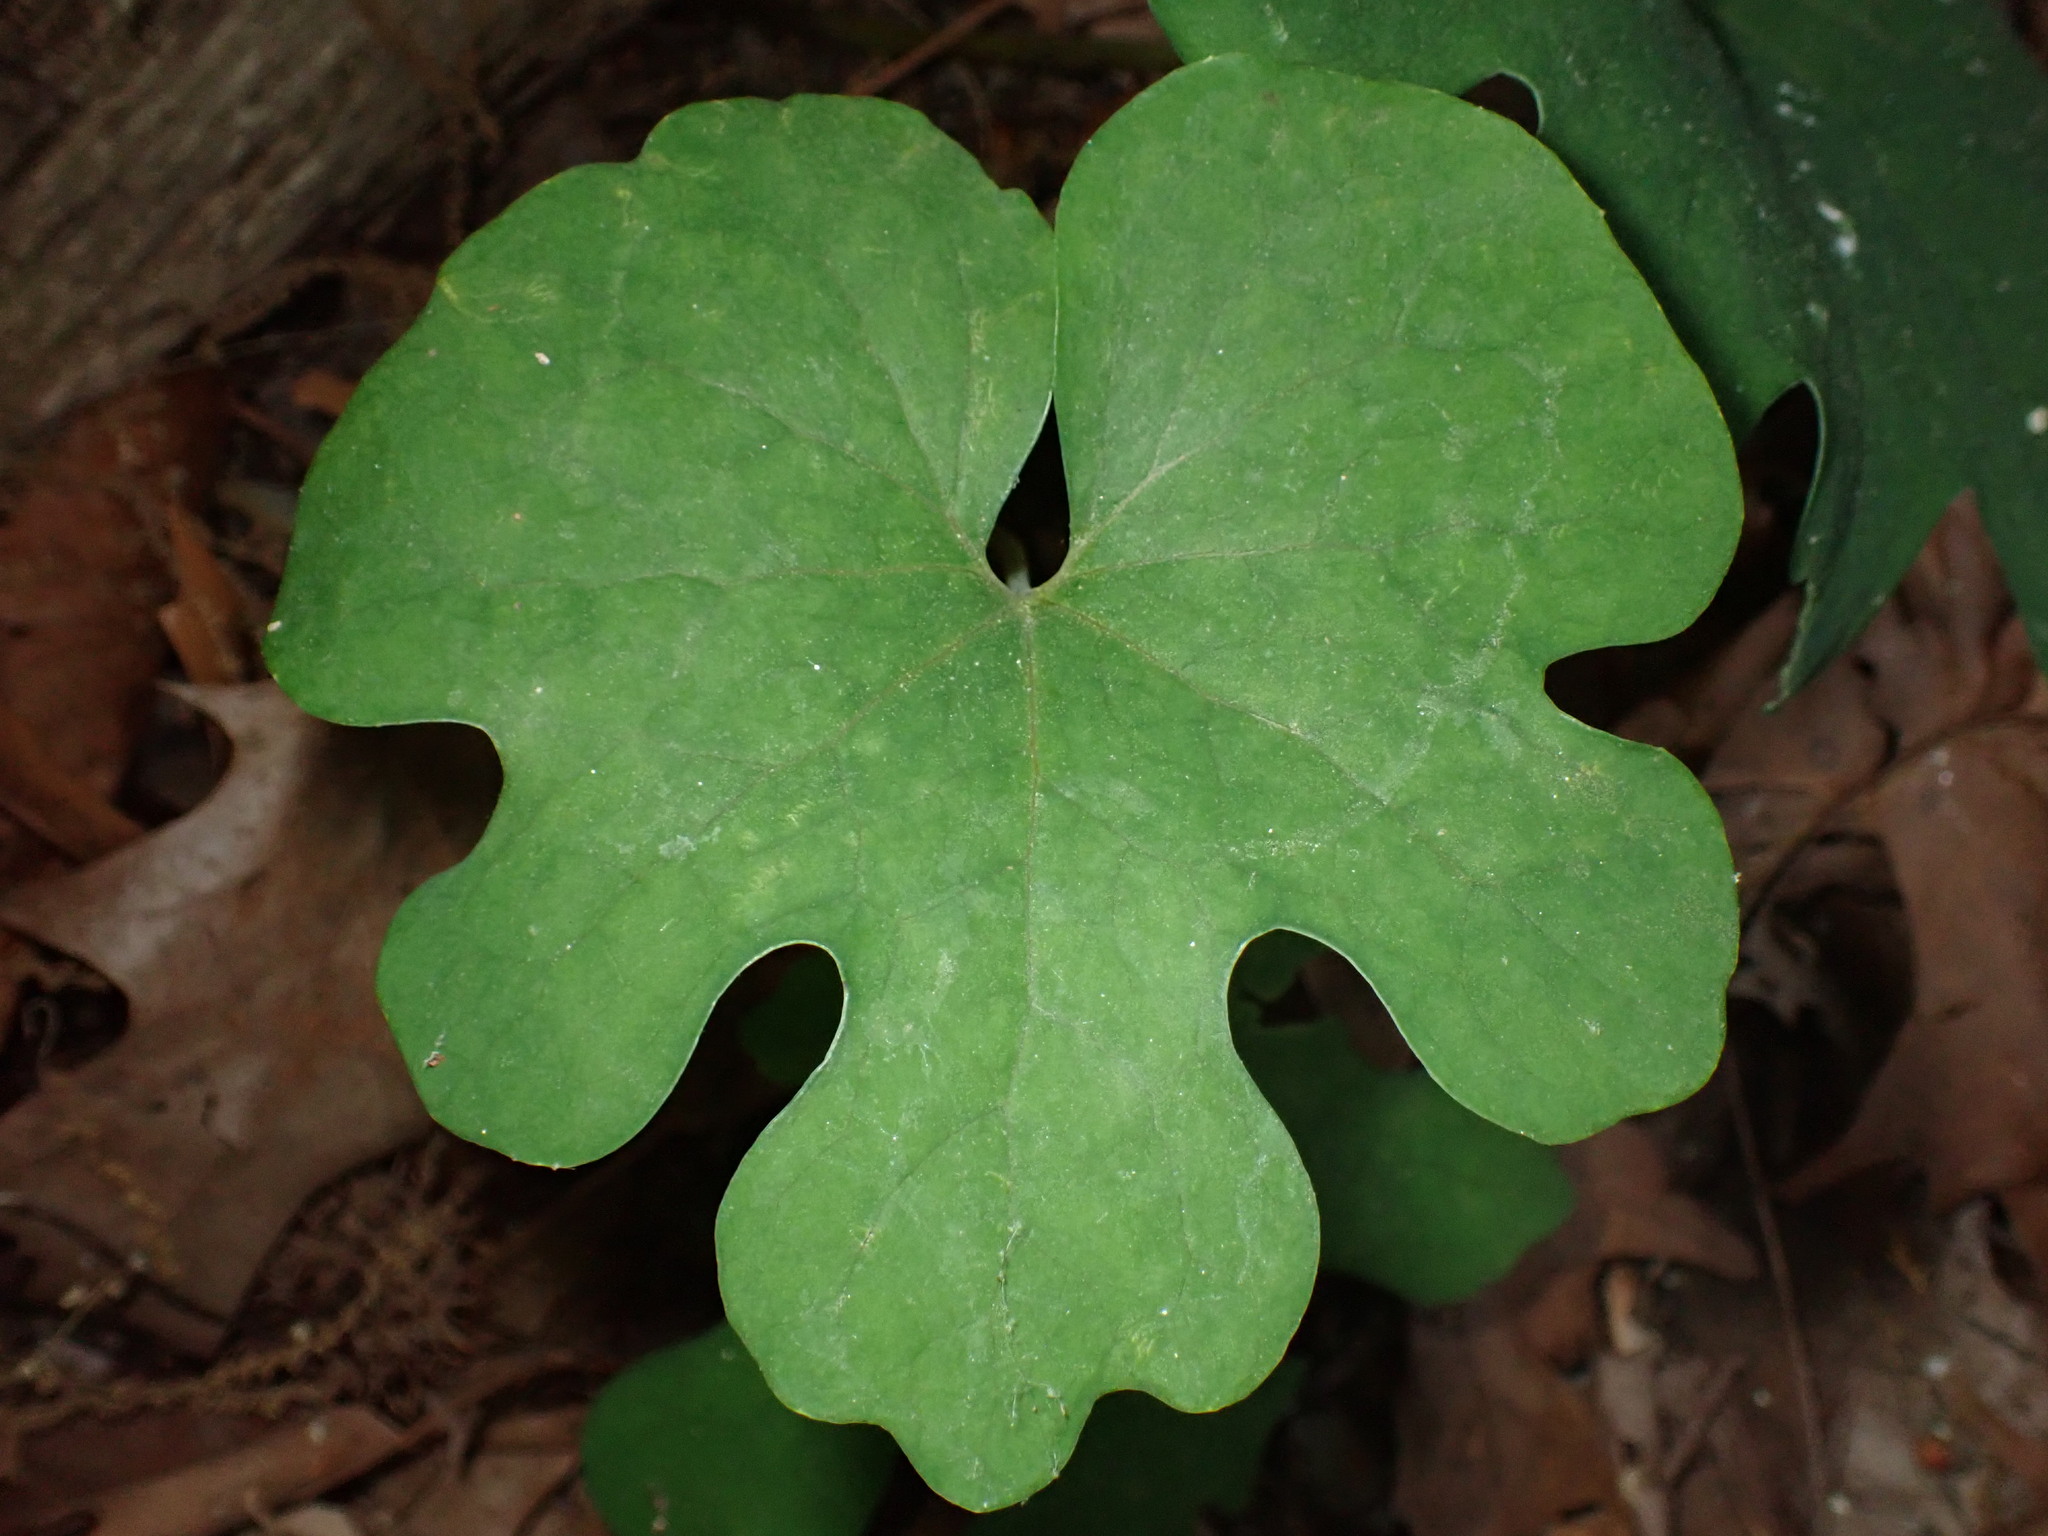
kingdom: Plantae
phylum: Tracheophyta
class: Magnoliopsida
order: Ranunculales
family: Papaveraceae
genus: Sanguinaria
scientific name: Sanguinaria canadensis
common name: Bloodroot
